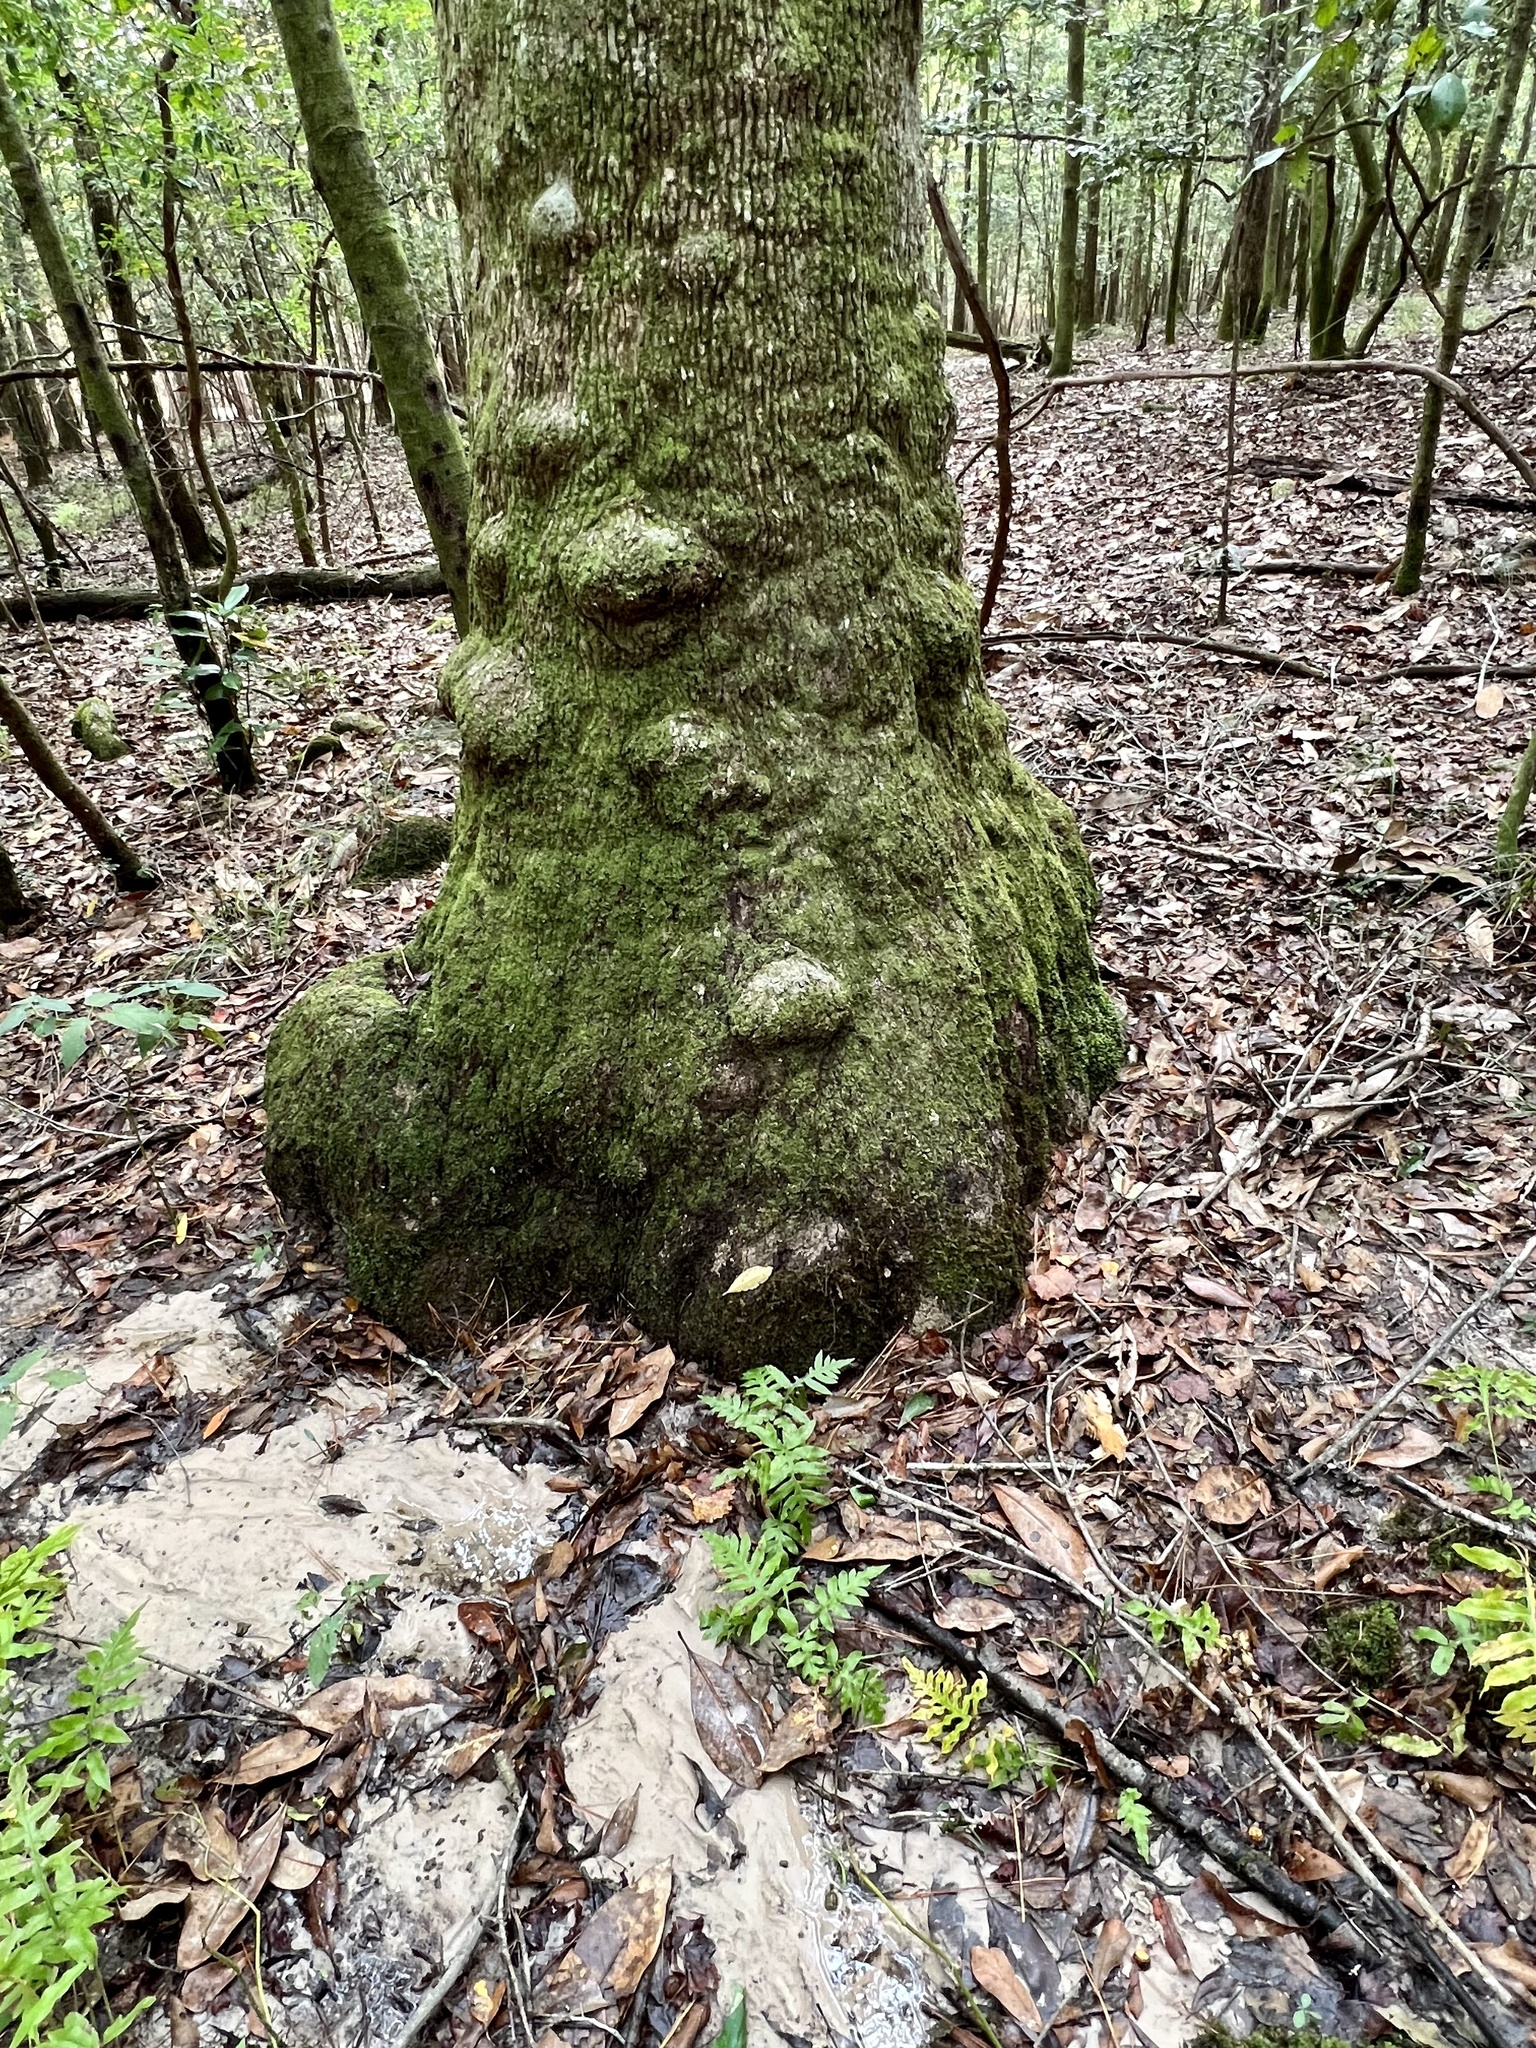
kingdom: Plantae
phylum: Tracheophyta
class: Polypodiopsida
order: Polypodiales
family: Blechnaceae
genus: Lorinseria
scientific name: Lorinseria areolata
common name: Dwarf chain fern
